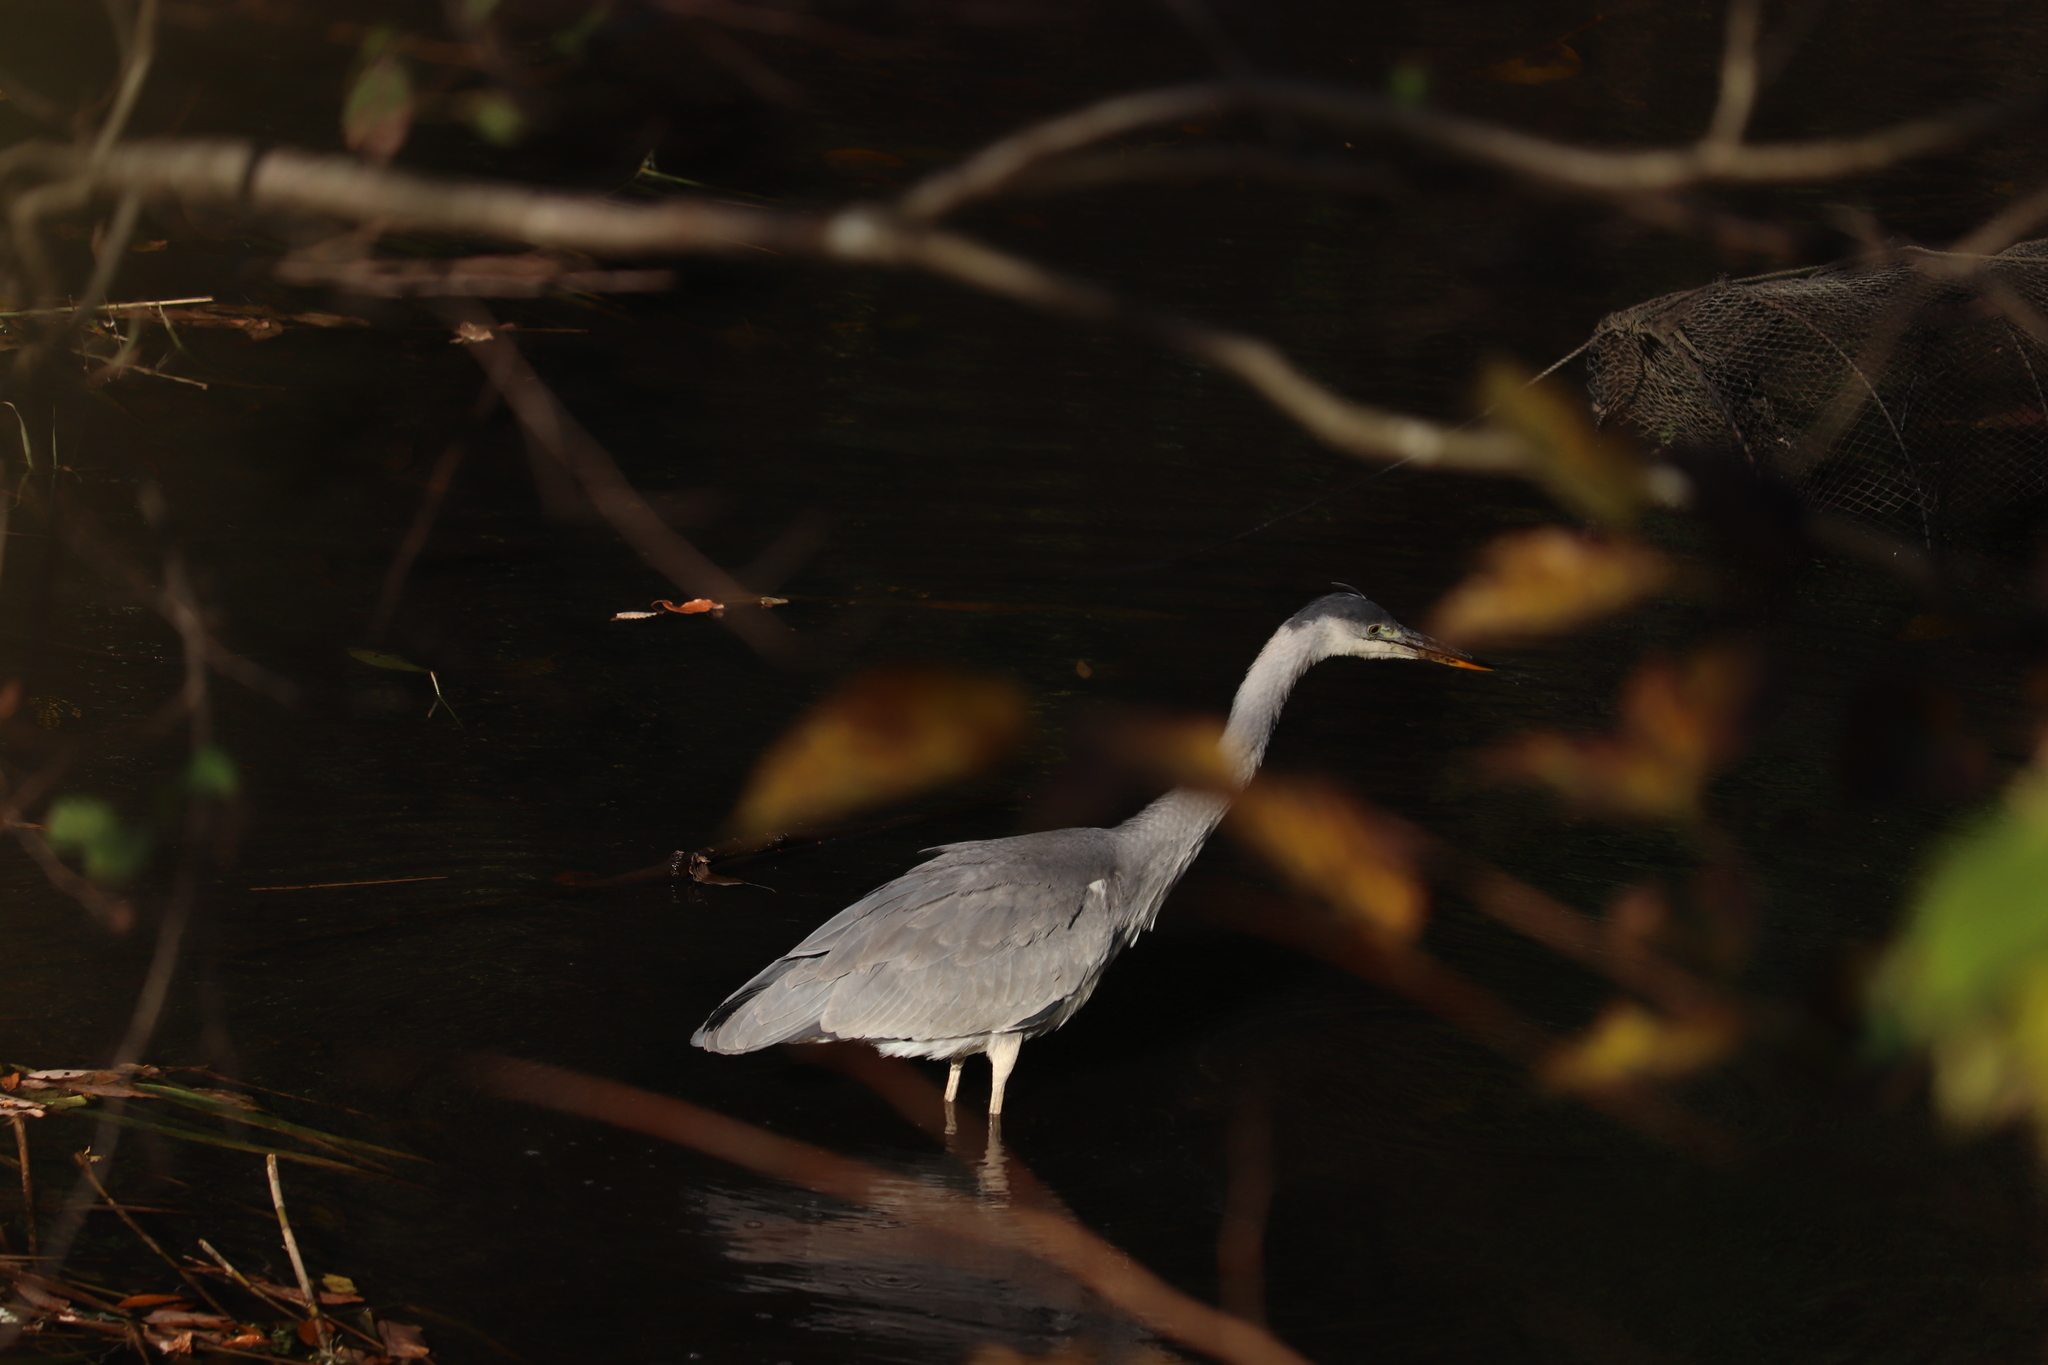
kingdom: Animalia
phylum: Chordata
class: Aves
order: Pelecaniformes
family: Ardeidae
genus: Ardea
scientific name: Ardea cinerea
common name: Grey heron
